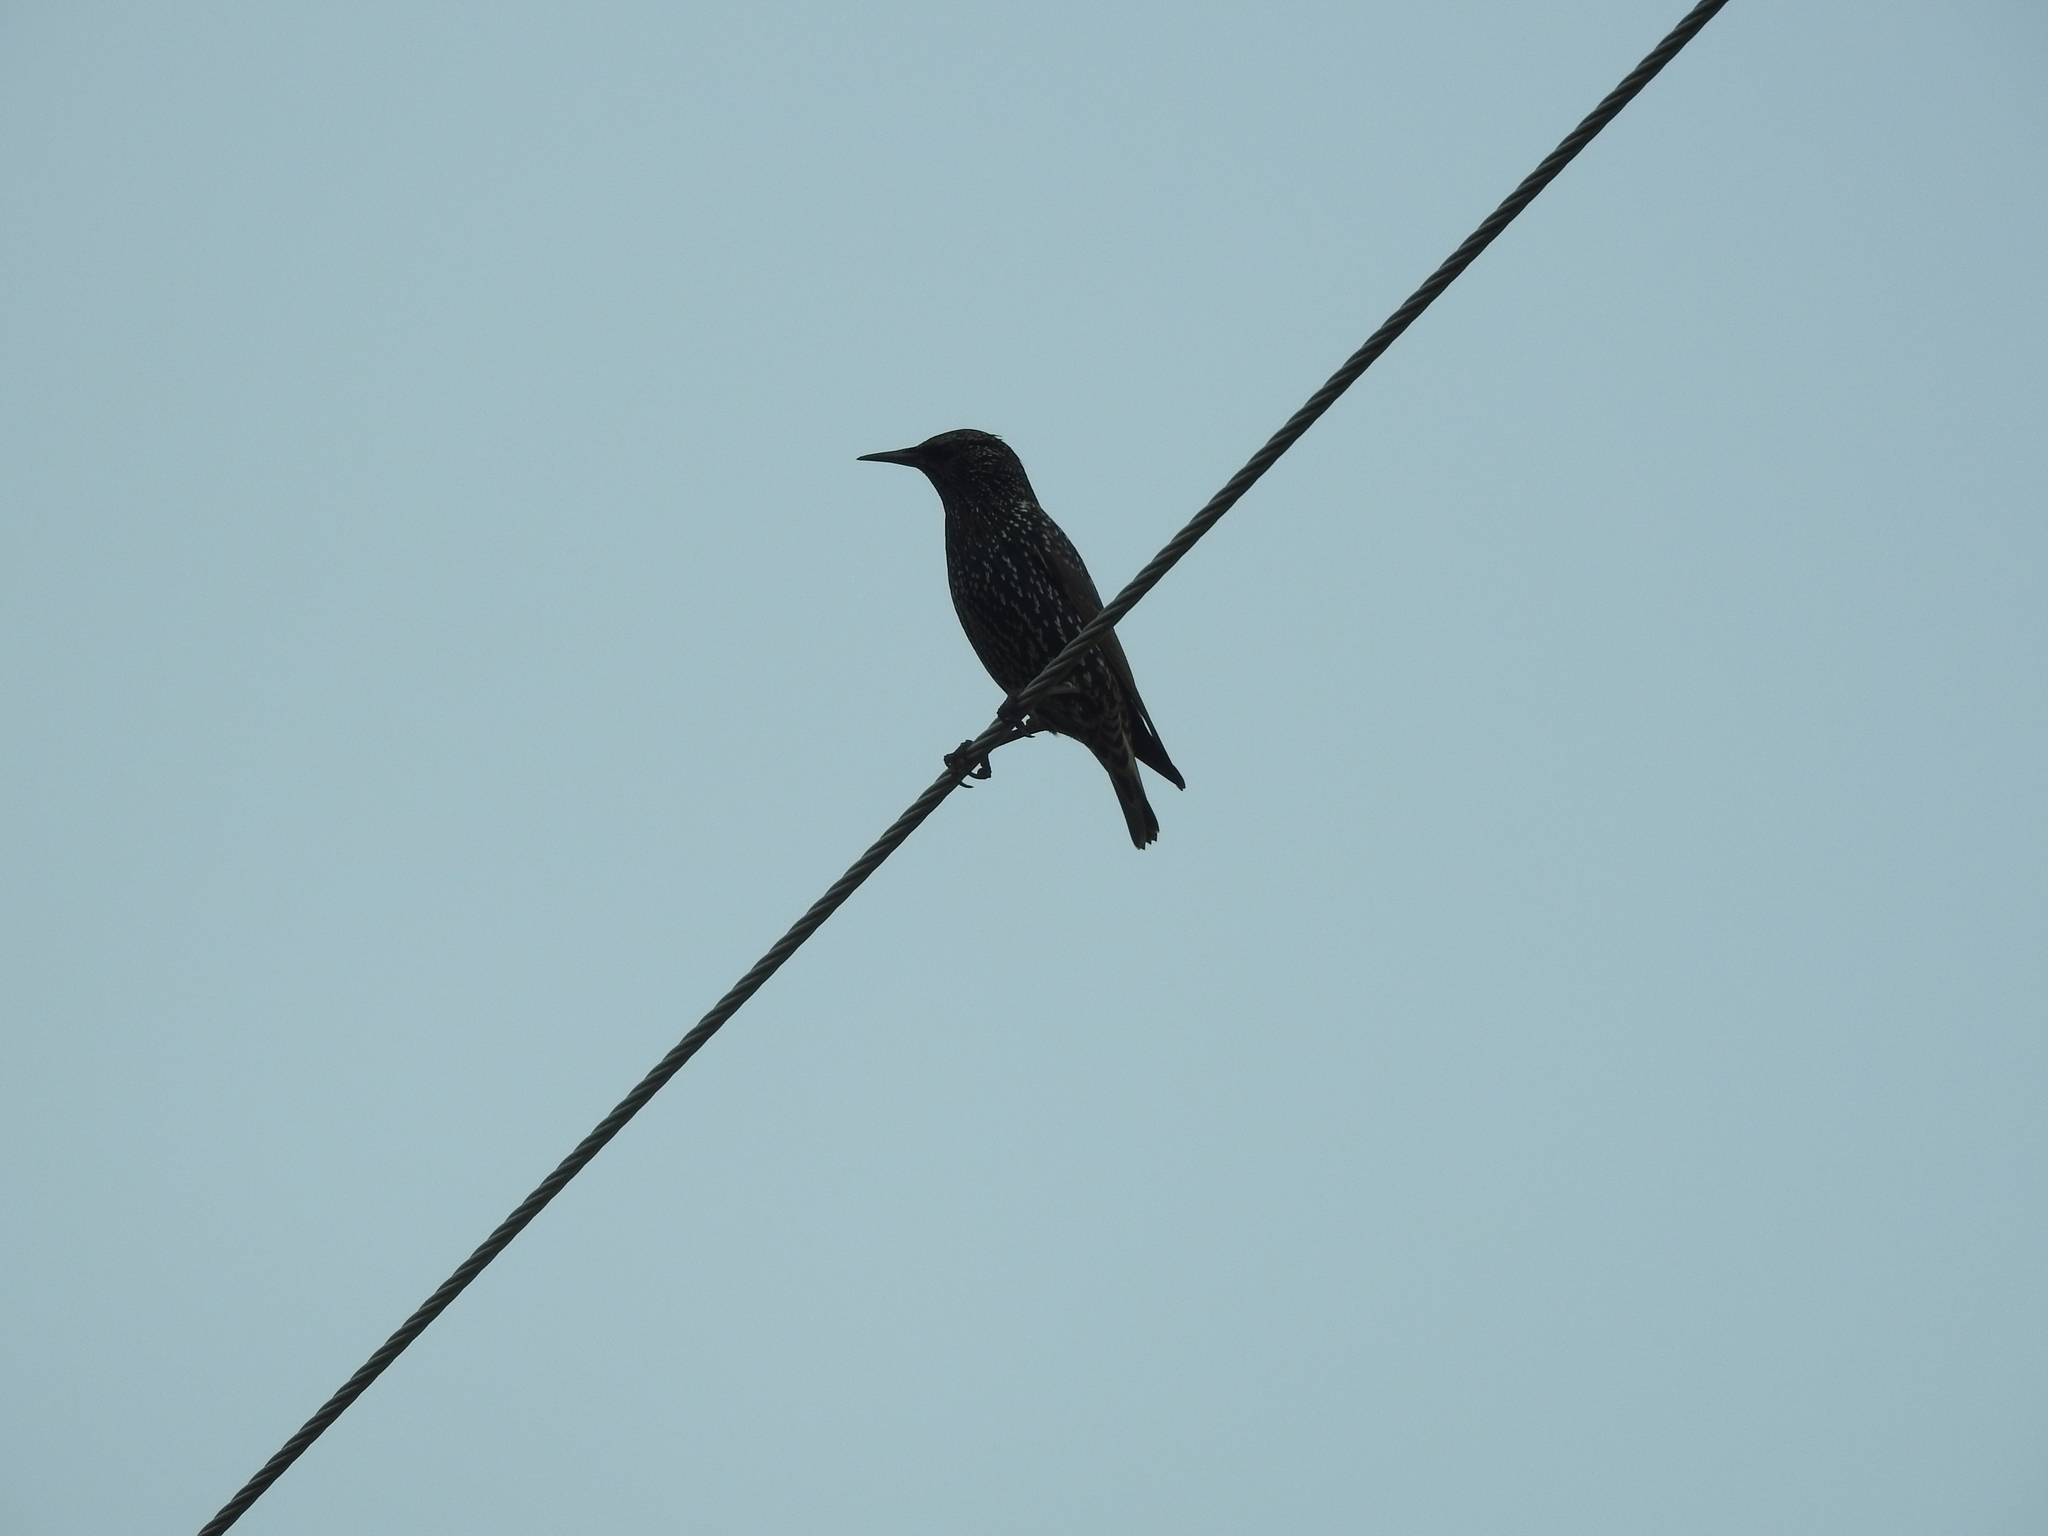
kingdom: Animalia
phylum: Chordata
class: Aves
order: Passeriformes
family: Sturnidae
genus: Sturnus
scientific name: Sturnus vulgaris
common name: Common starling
